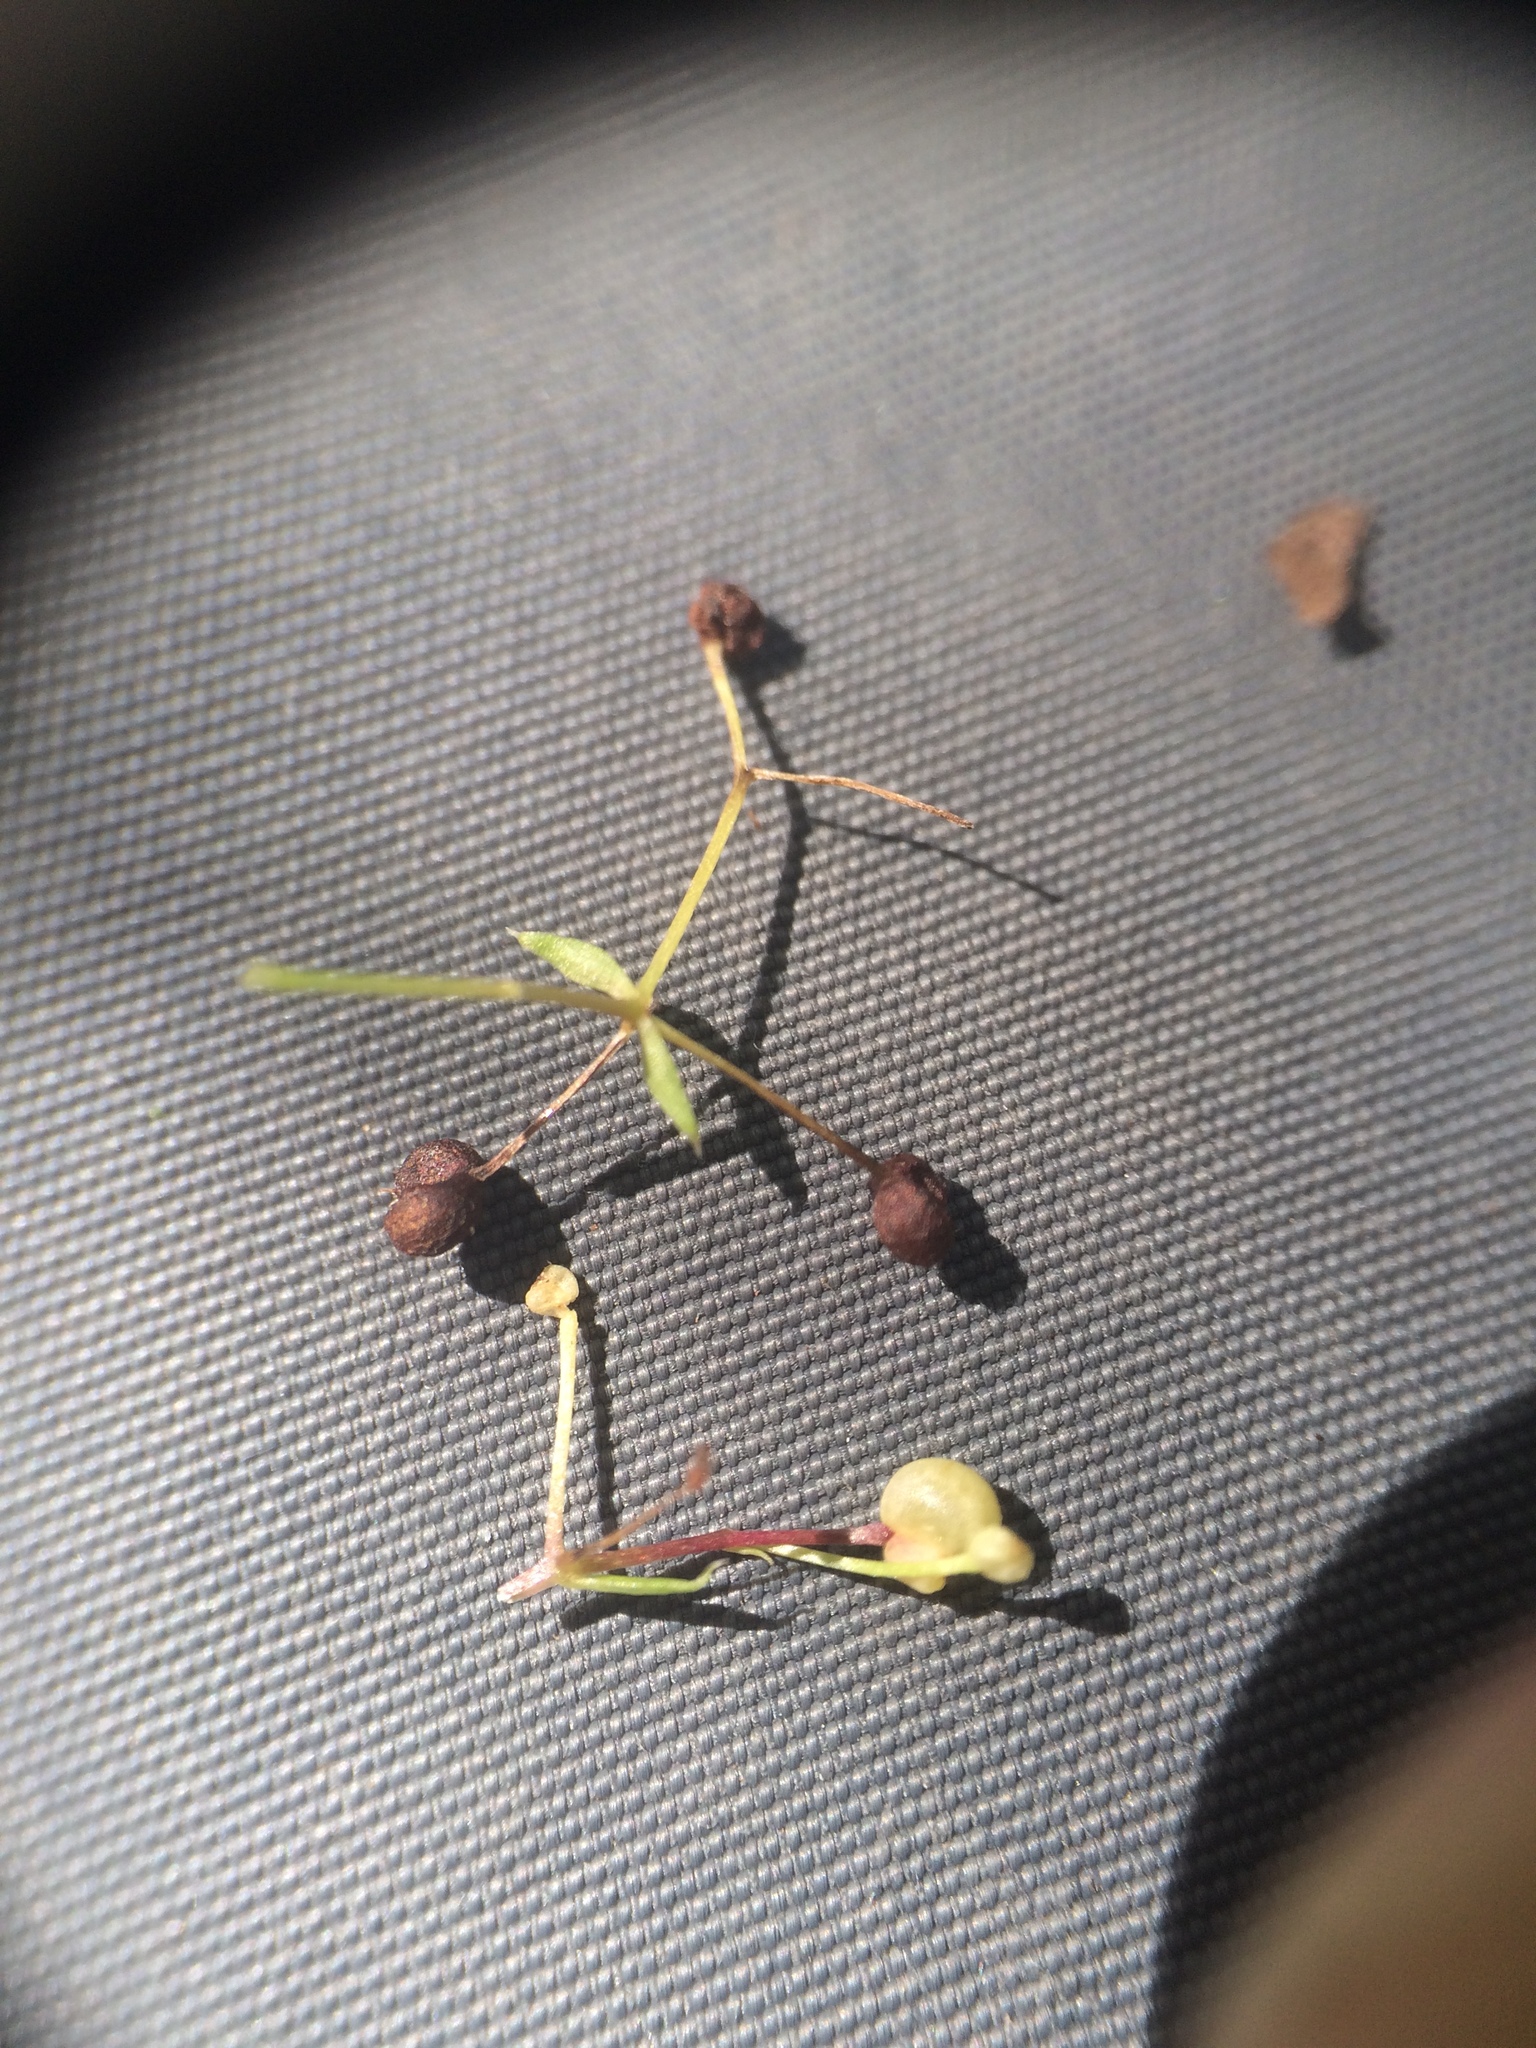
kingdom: Plantae
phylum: Tracheophyta
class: Magnoliopsida
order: Gentianales
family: Rubiaceae
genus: Galium
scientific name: Galium asprellum
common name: Rough bedstraw
